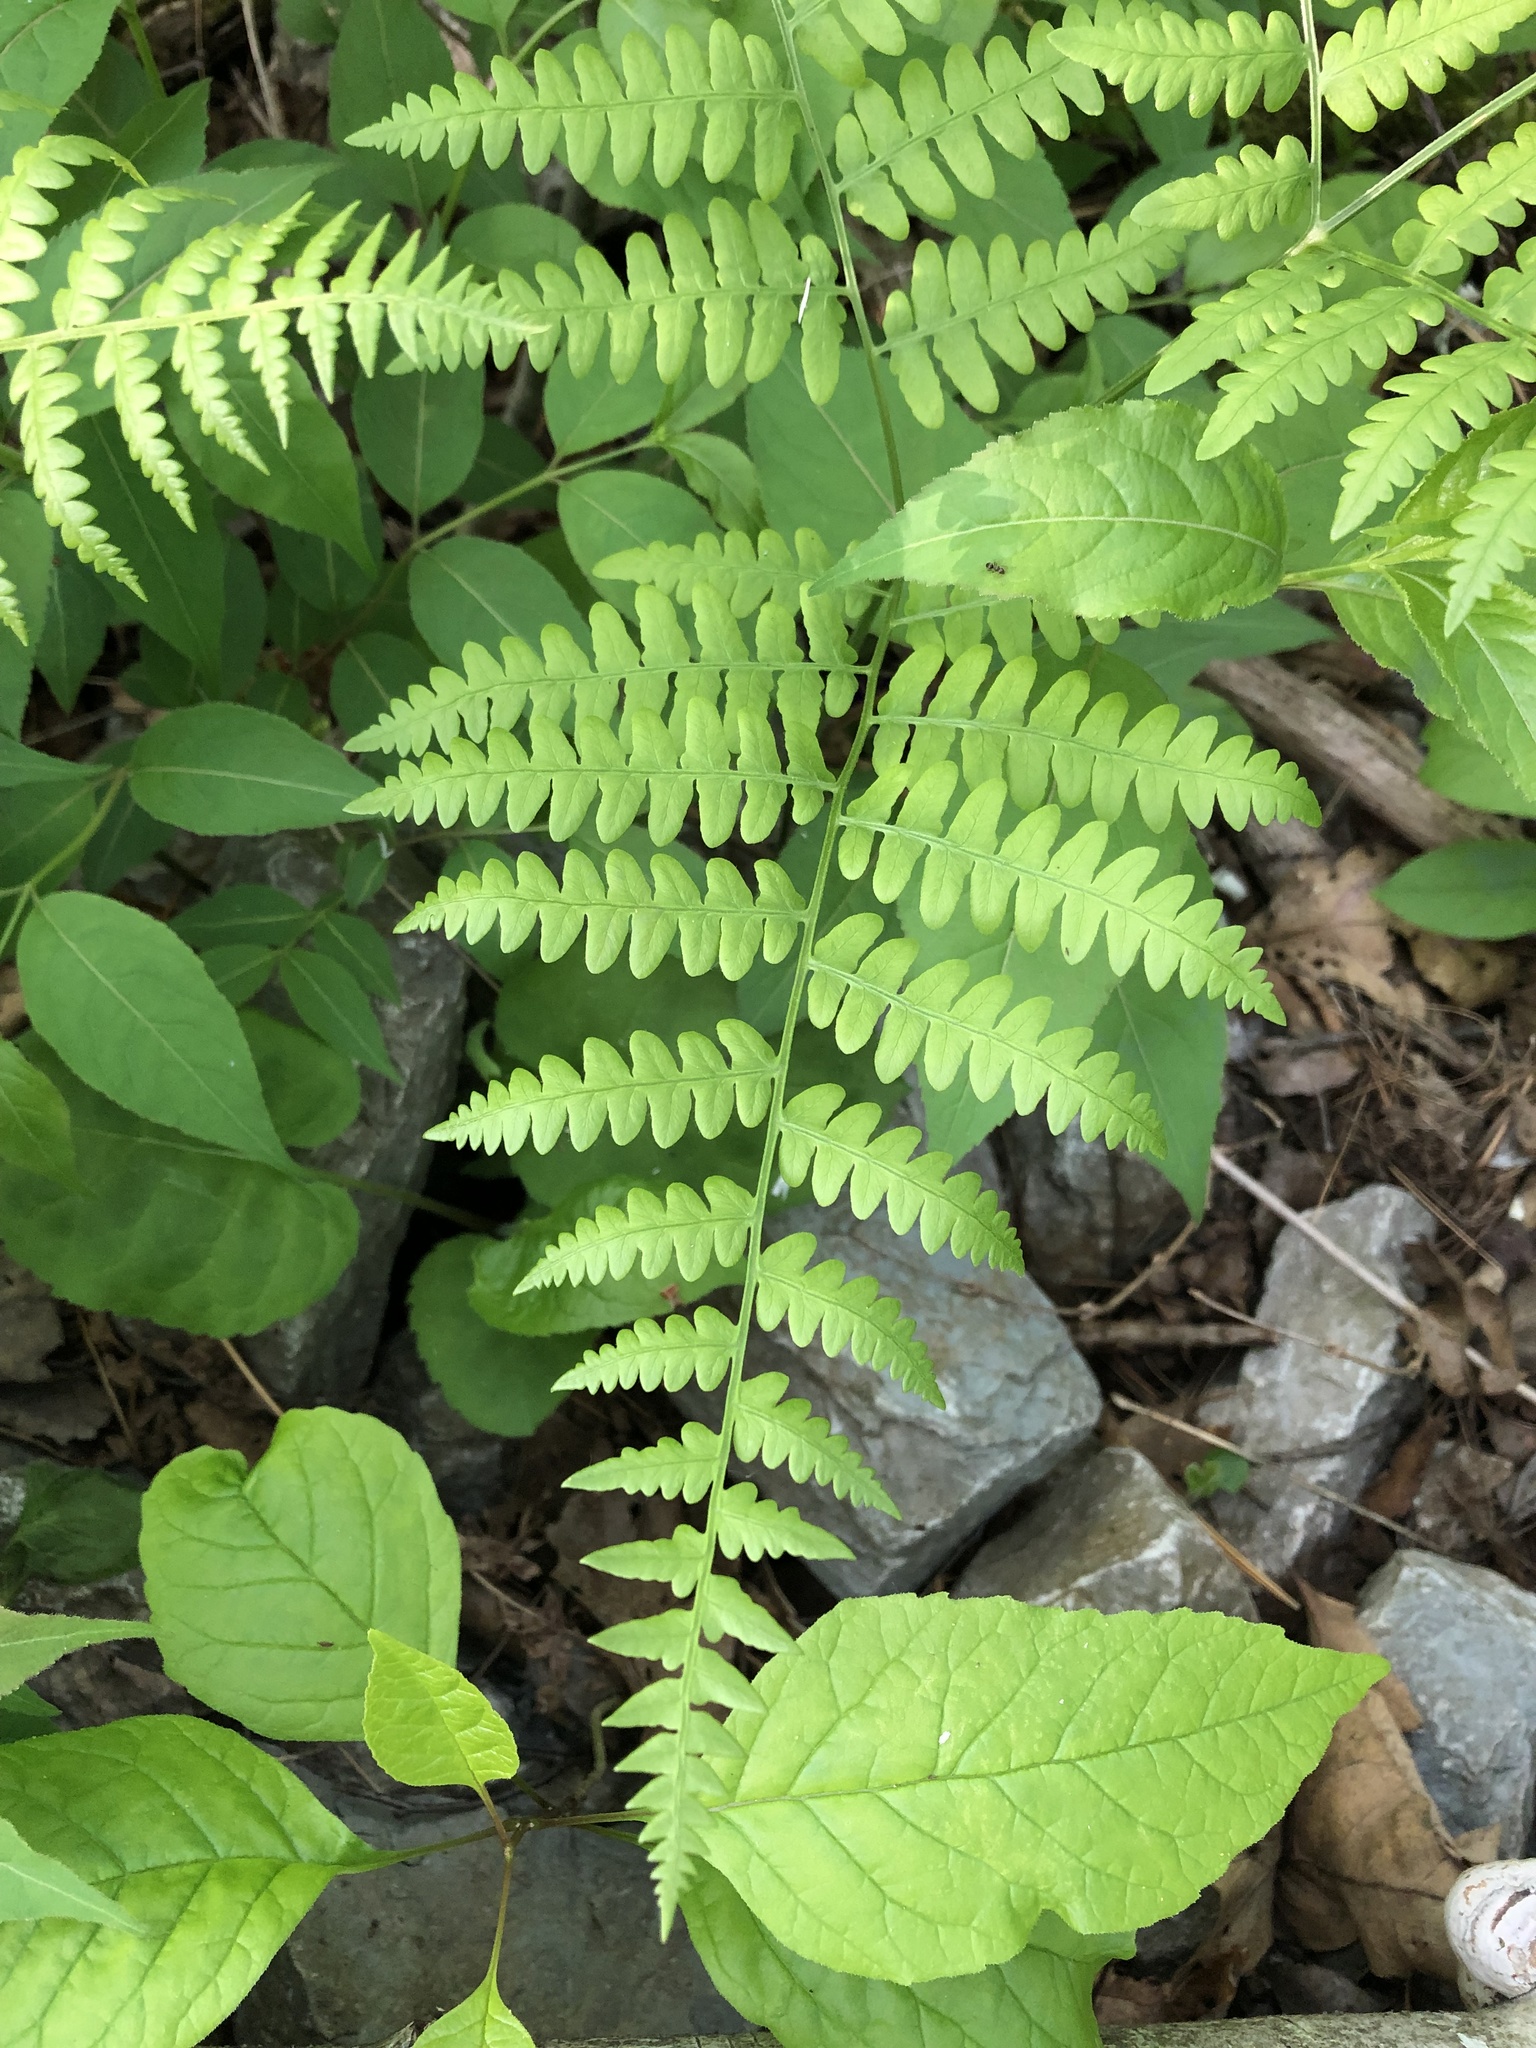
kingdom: Plantae
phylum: Tracheophyta
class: Polypodiopsida
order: Polypodiales
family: Dennstaedtiaceae
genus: Pteridium
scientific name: Pteridium aquilinum
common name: Bracken
